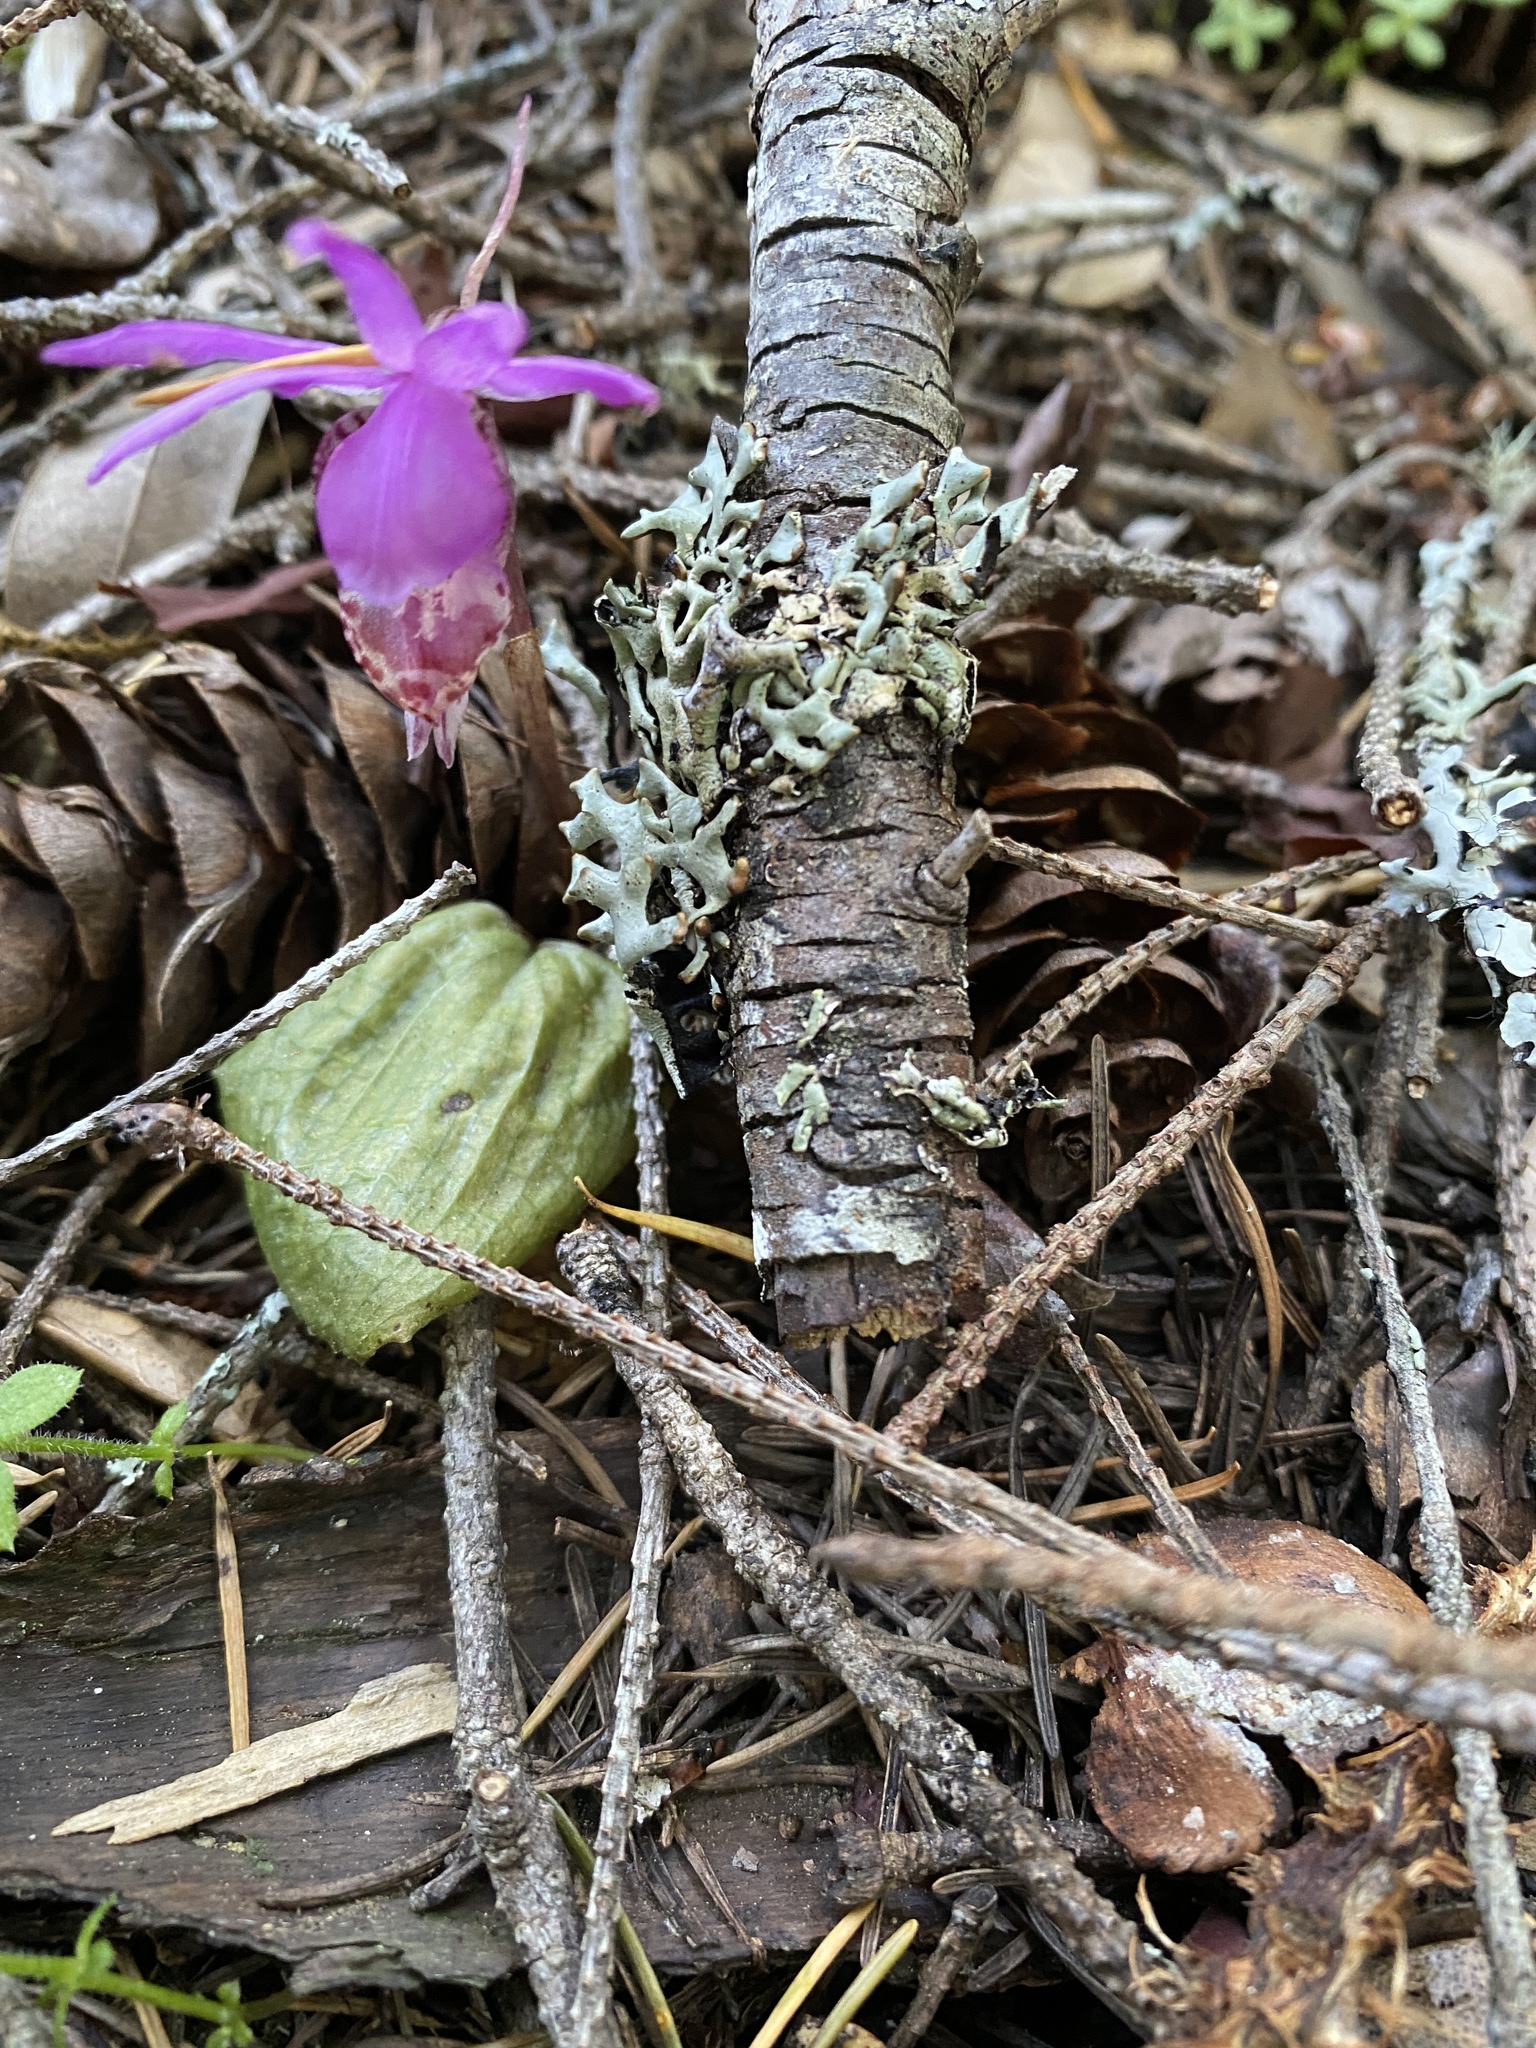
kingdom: Plantae
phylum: Tracheophyta
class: Liliopsida
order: Asparagales
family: Orchidaceae
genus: Calypso
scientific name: Calypso bulbosa
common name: Calypso
